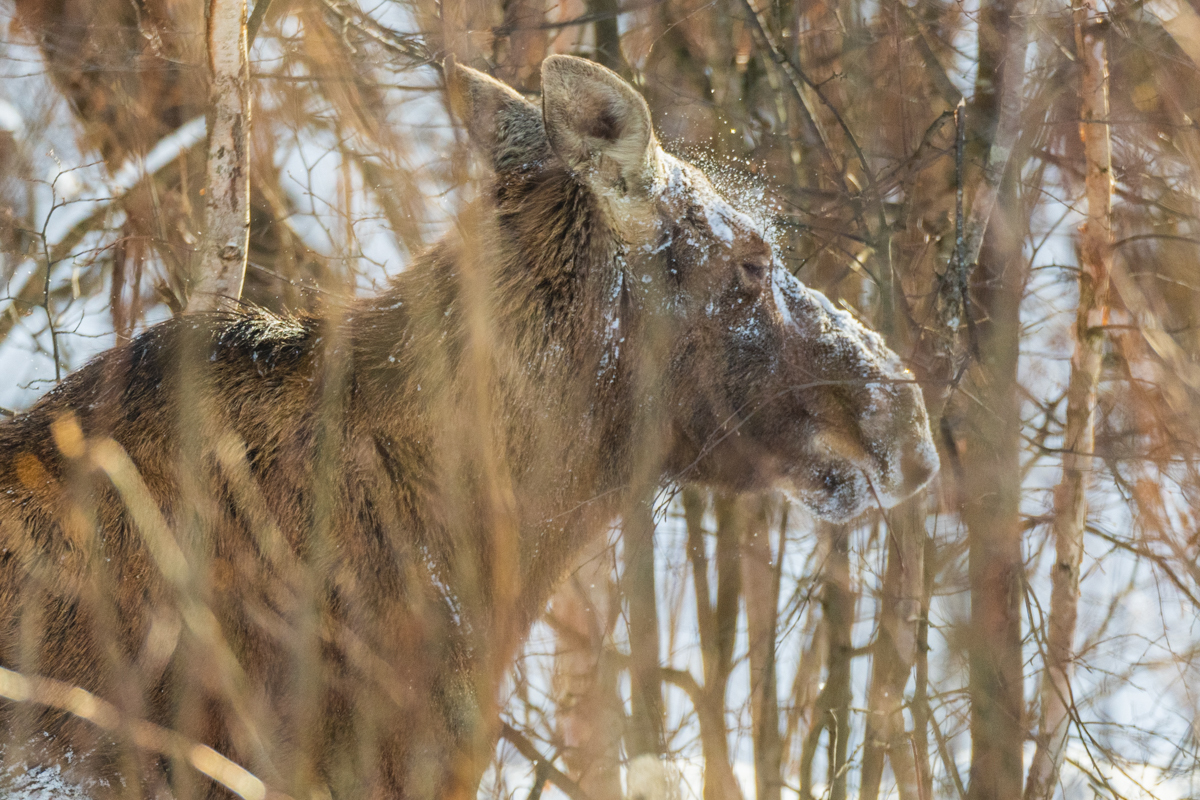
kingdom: Animalia
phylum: Chordata
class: Mammalia
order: Artiodactyla
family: Cervidae
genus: Alces
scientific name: Alces alces
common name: Moose
